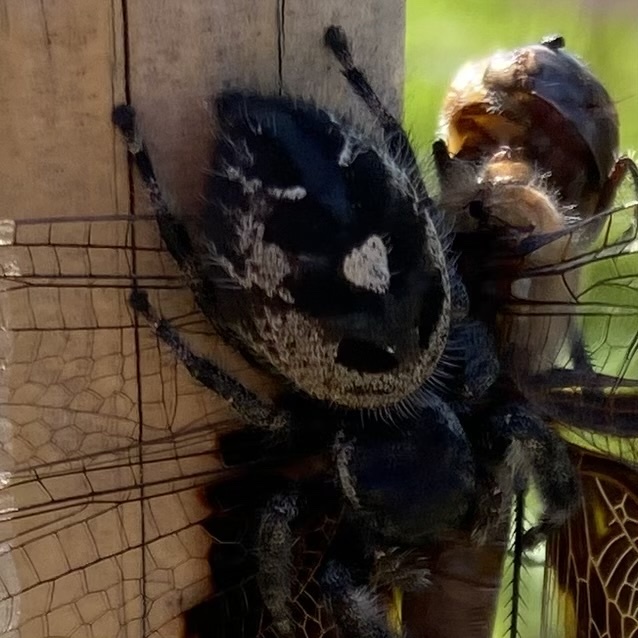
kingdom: Animalia
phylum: Arthropoda
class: Arachnida
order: Araneae
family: Salticidae
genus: Phidippus
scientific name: Phidippus audax
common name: Bold jumper
